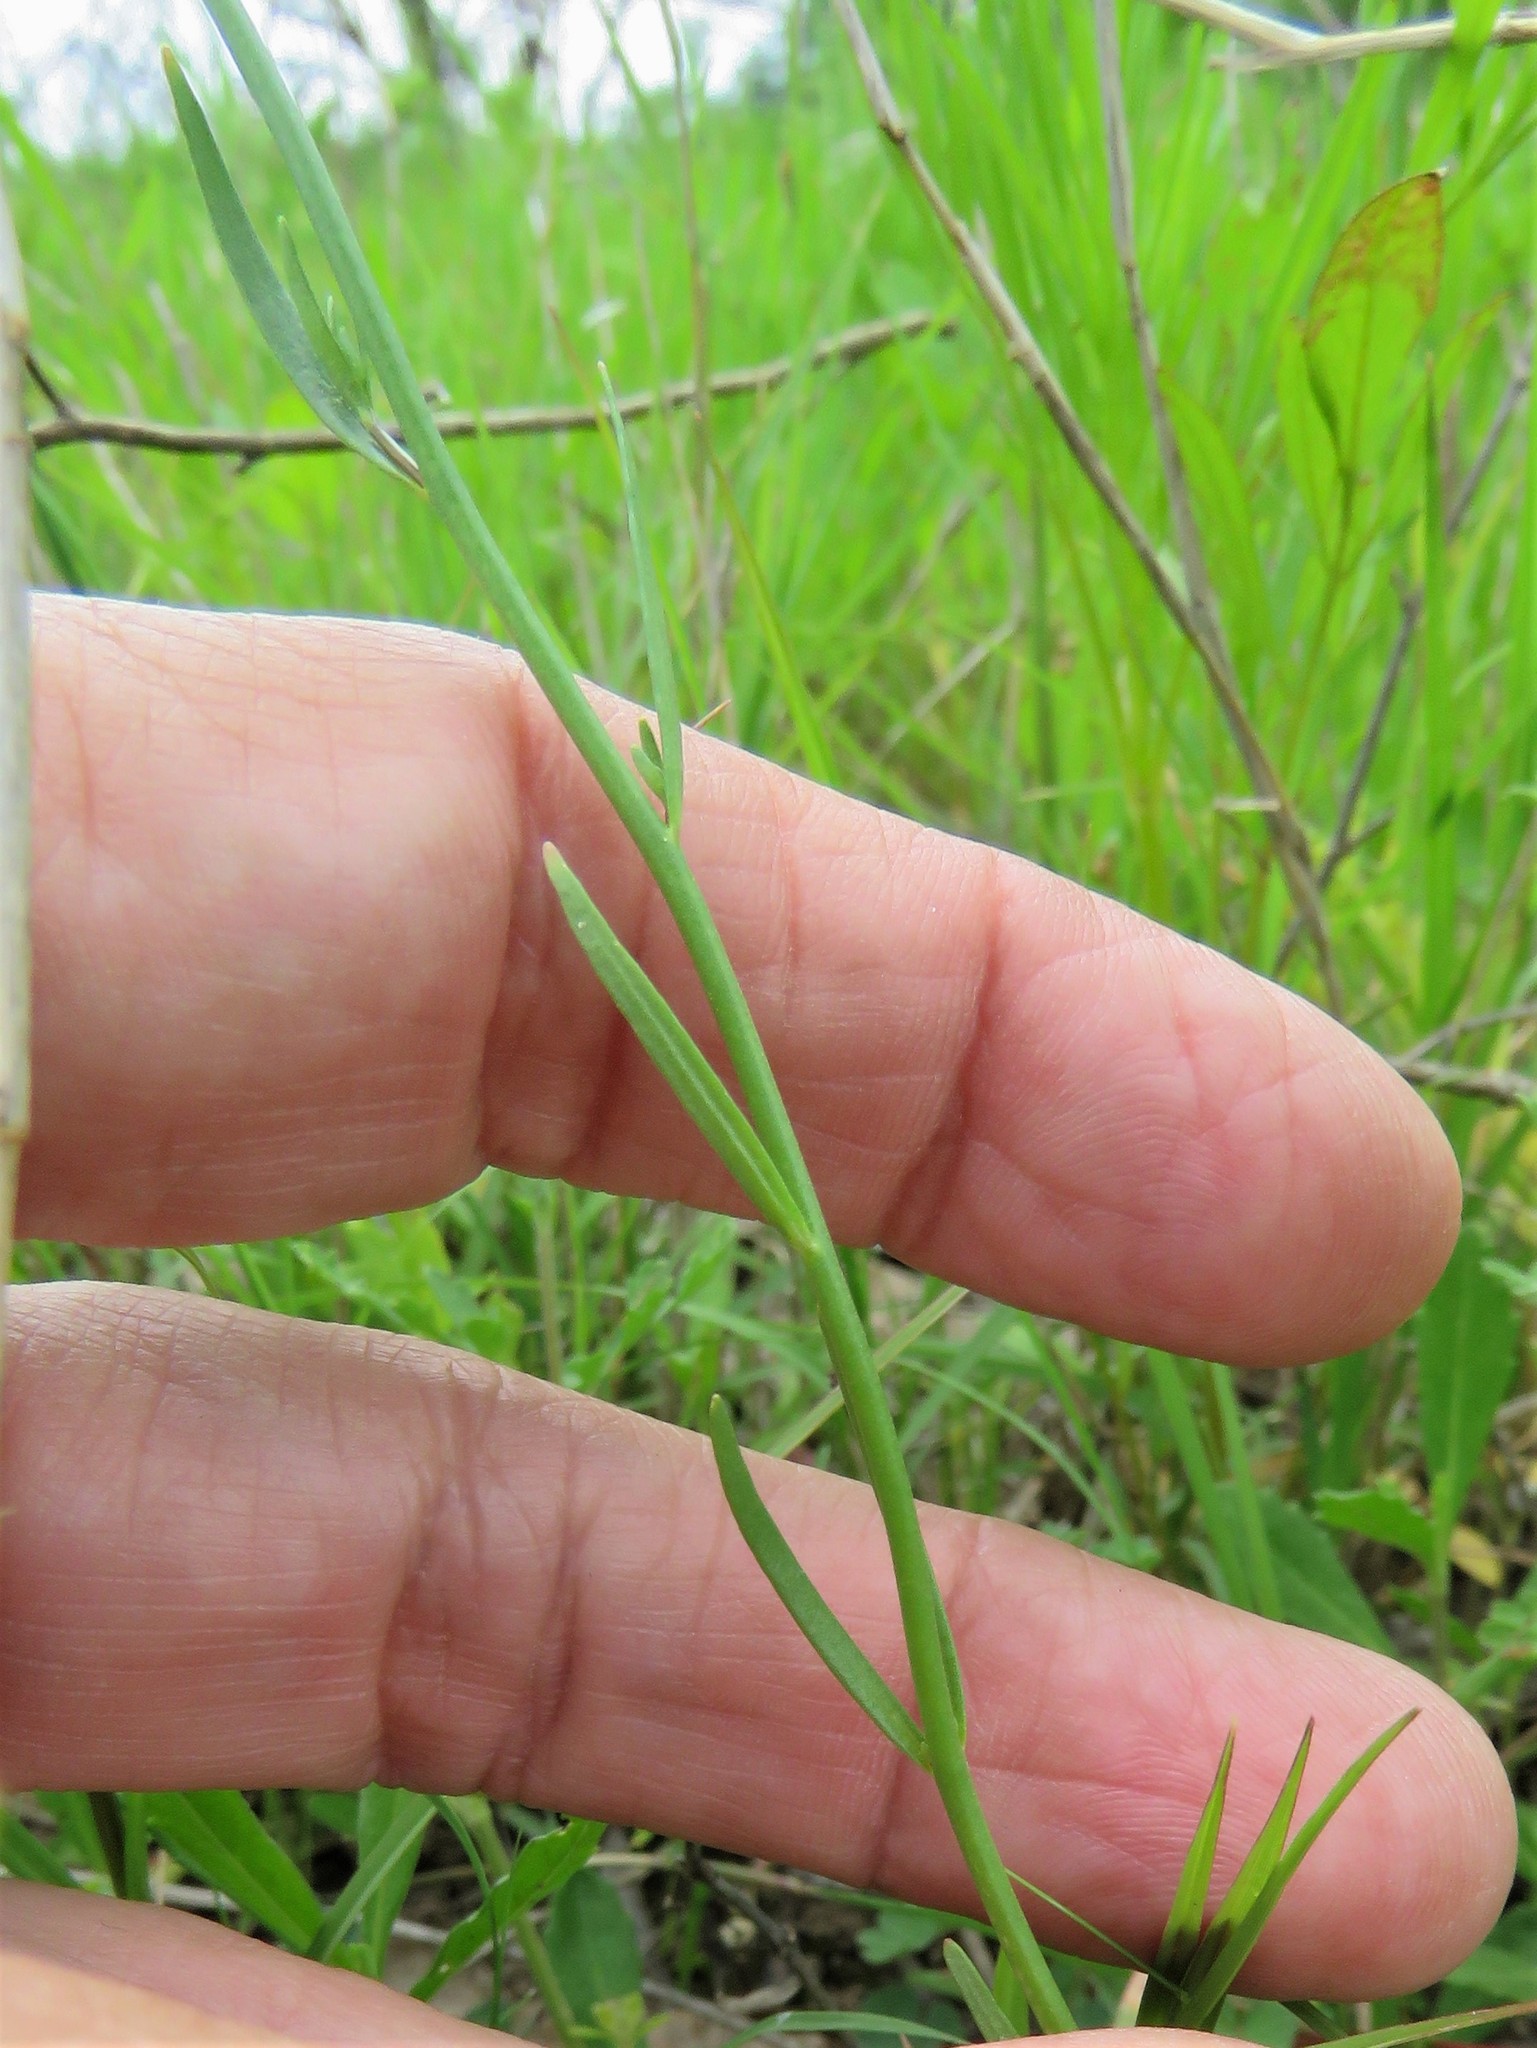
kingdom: Plantae
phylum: Tracheophyta
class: Magnoliopsida
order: Lamiales
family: Plantaginaceae
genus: Nuttallanthus
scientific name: Nuttallanthus texanus
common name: Texas toadflax
